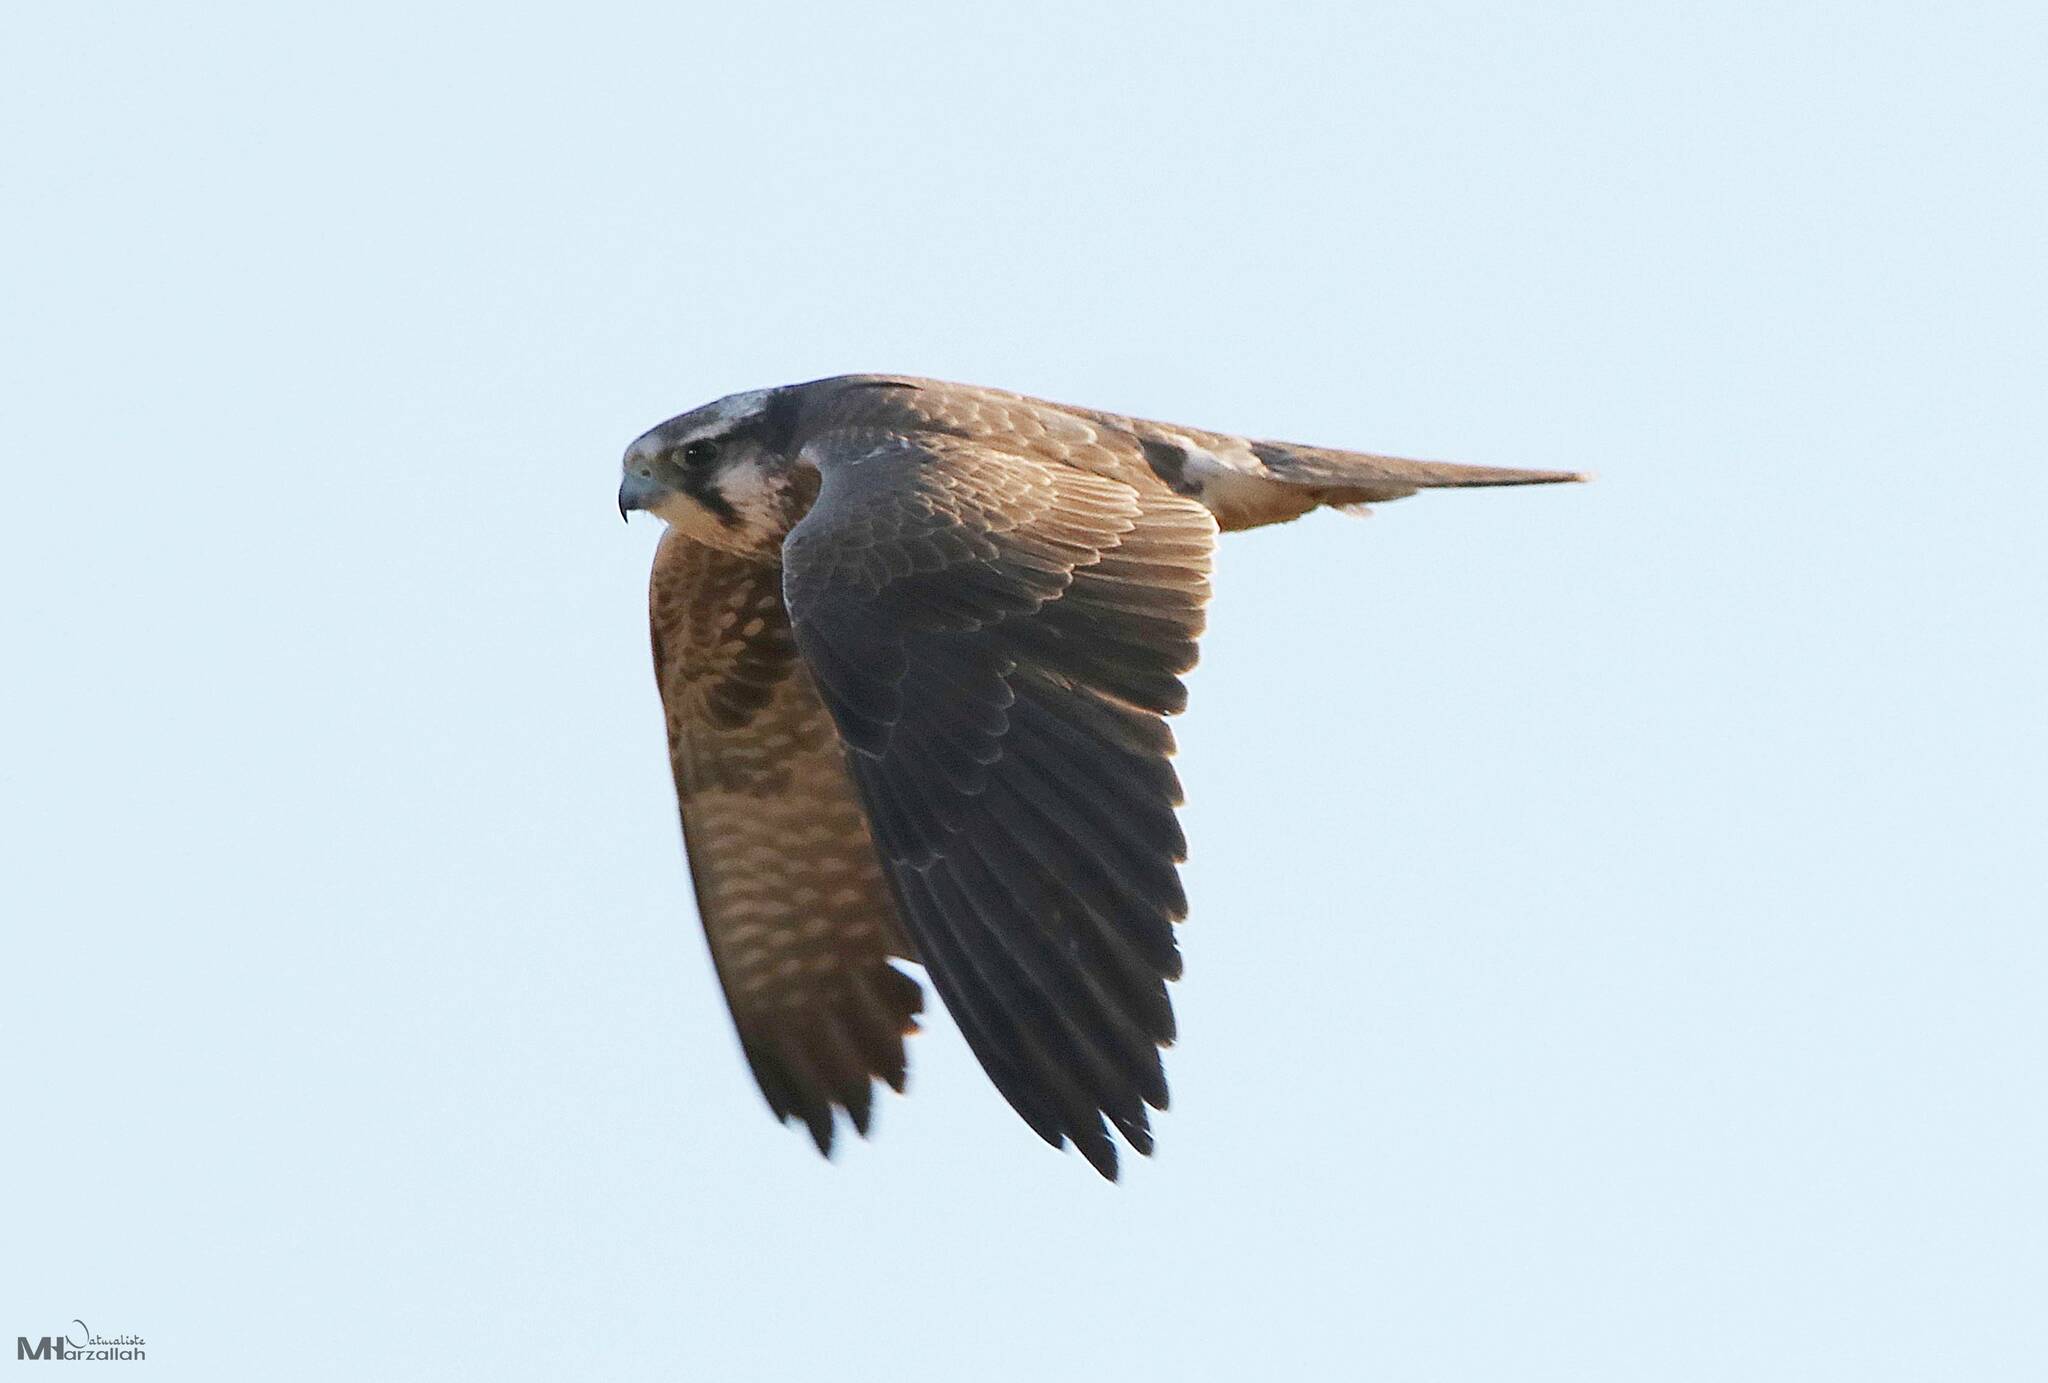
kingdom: Animalia
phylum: Chordata
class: Aves
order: Falconiformes
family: Falconidae
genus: Falco
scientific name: Falco biarmicus
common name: Lanner falcon
